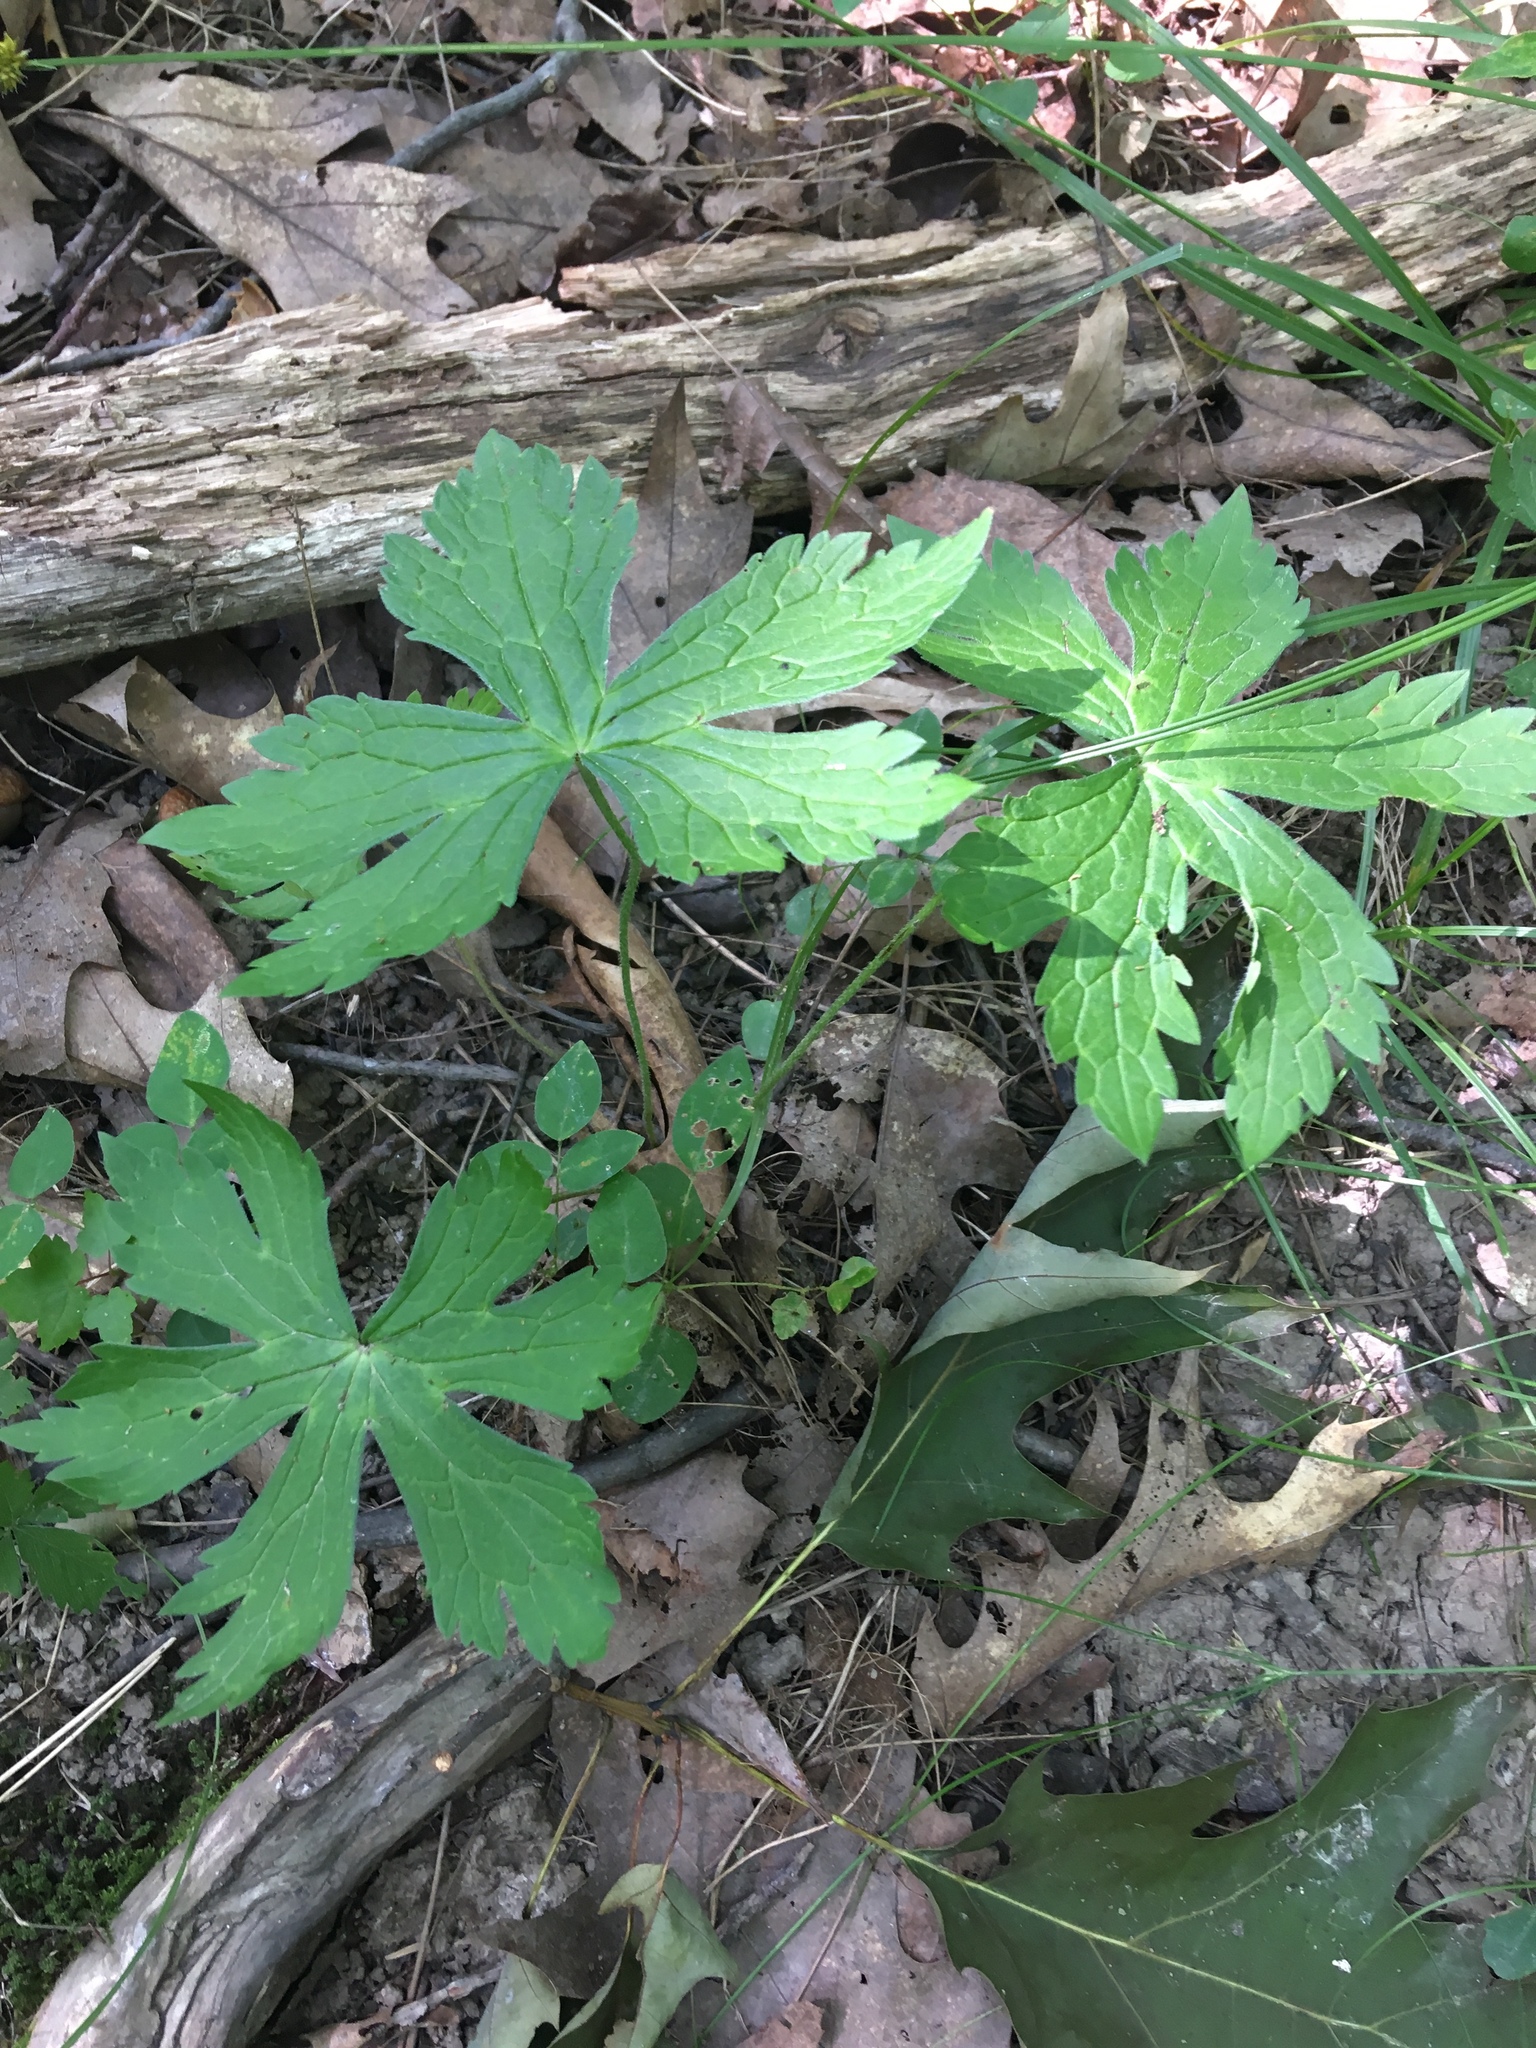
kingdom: Plantae
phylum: Tracheophyta
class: Magnoliopsida
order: Geraniales
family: Geraniaceae
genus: Geranium
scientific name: Geranium maculatum
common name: Spotted geranium
